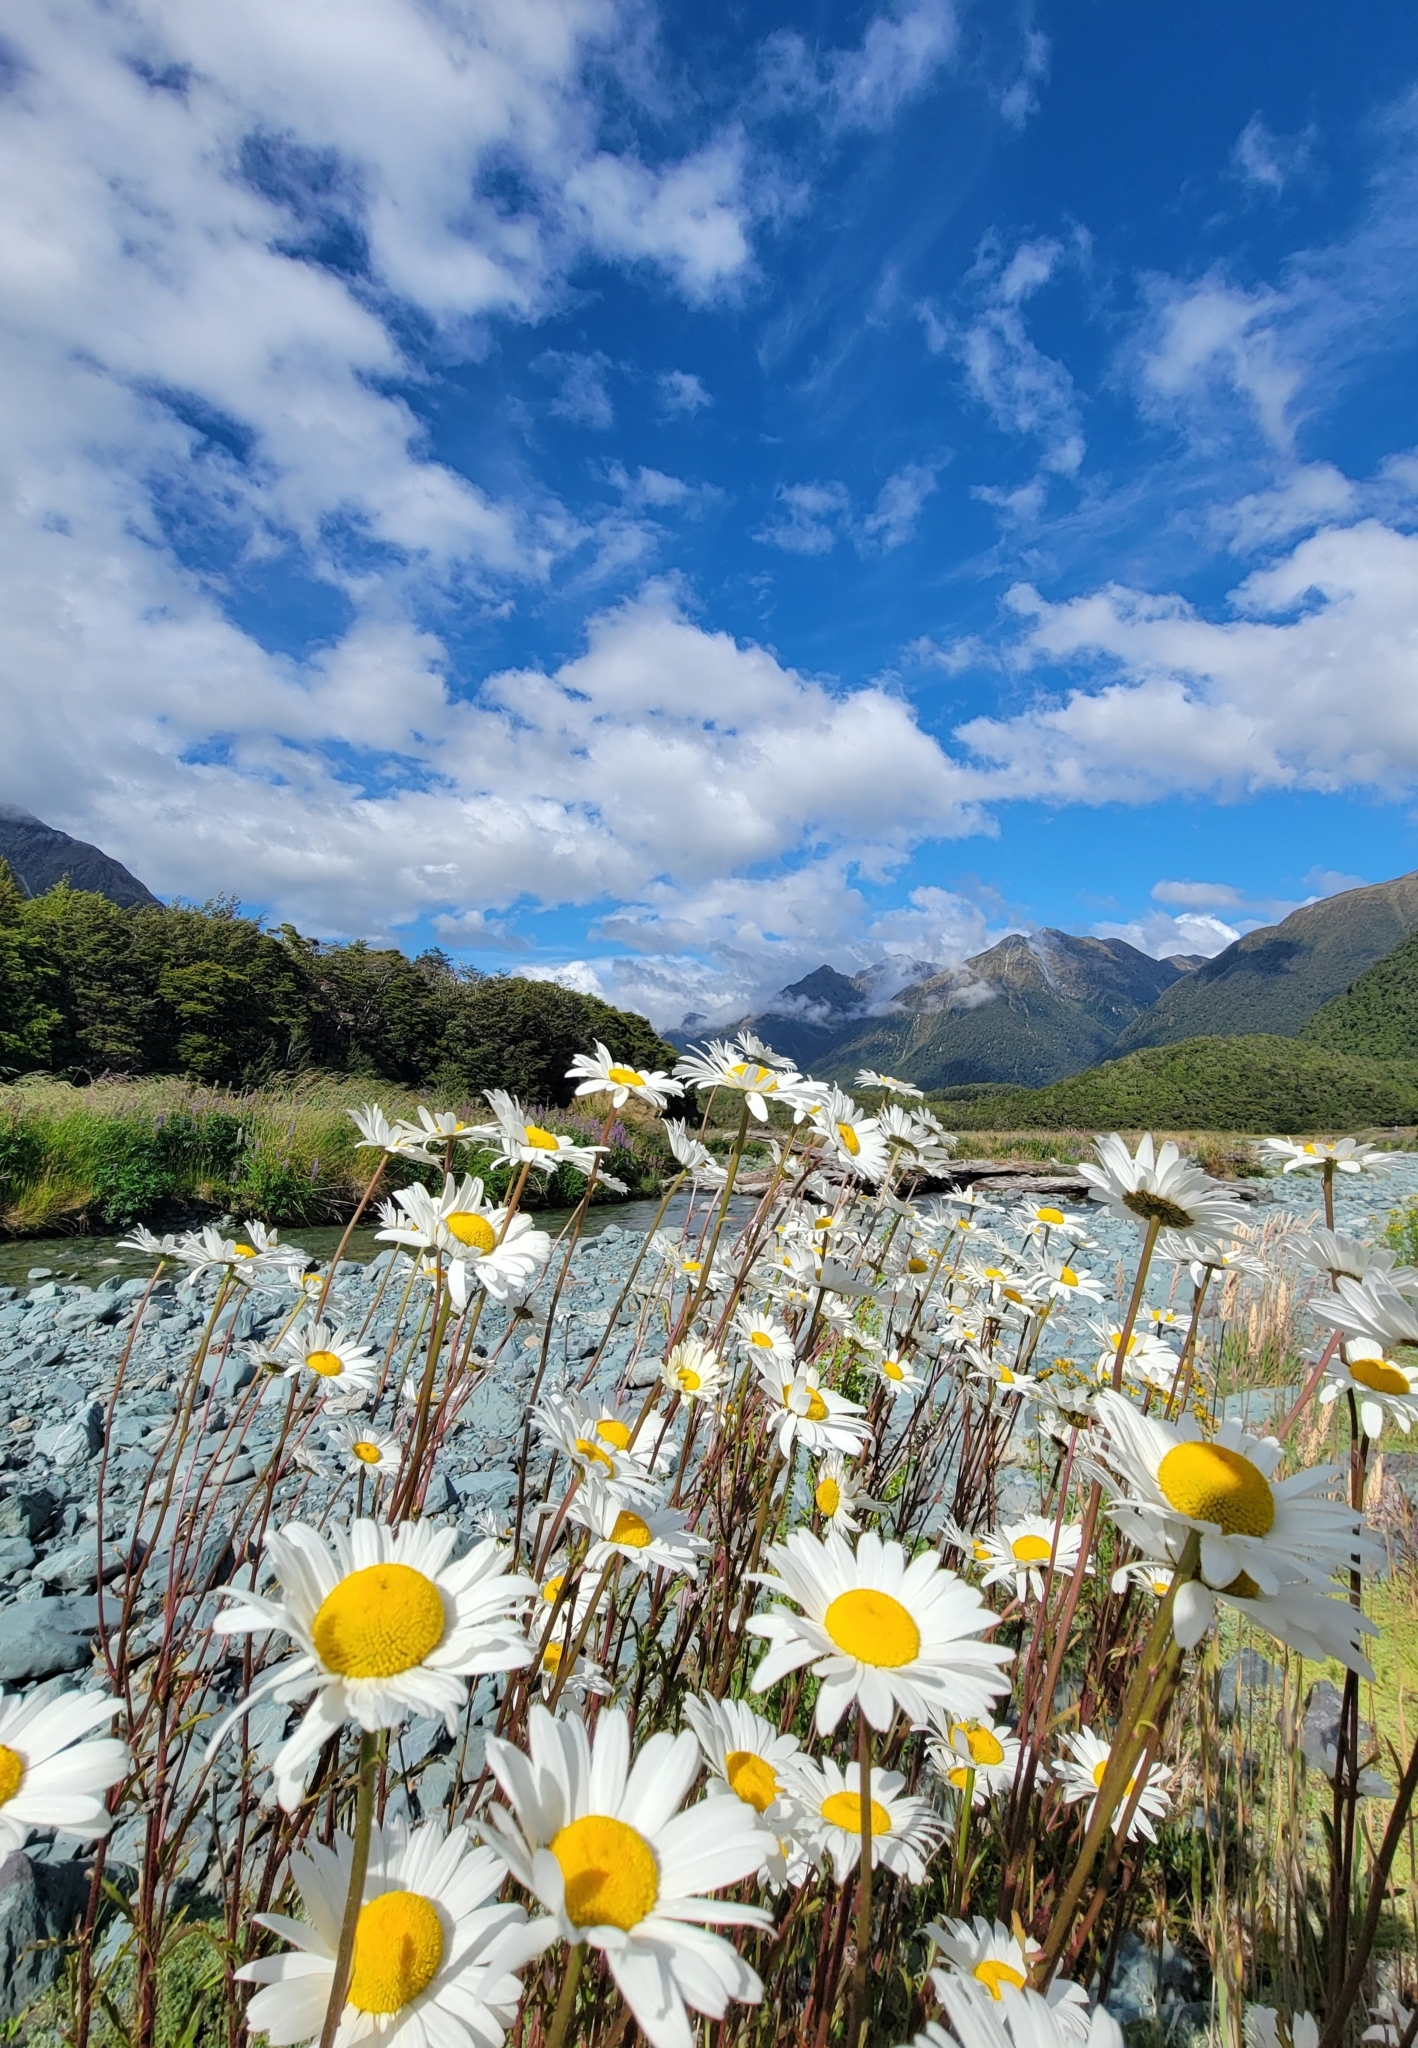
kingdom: Plantae
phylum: Tracheophyta
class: Magnoliopsida
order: Asterales
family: Asteraceae
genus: Leucanthemum
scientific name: Leucanthemum vulgare
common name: Oxeye daisy
